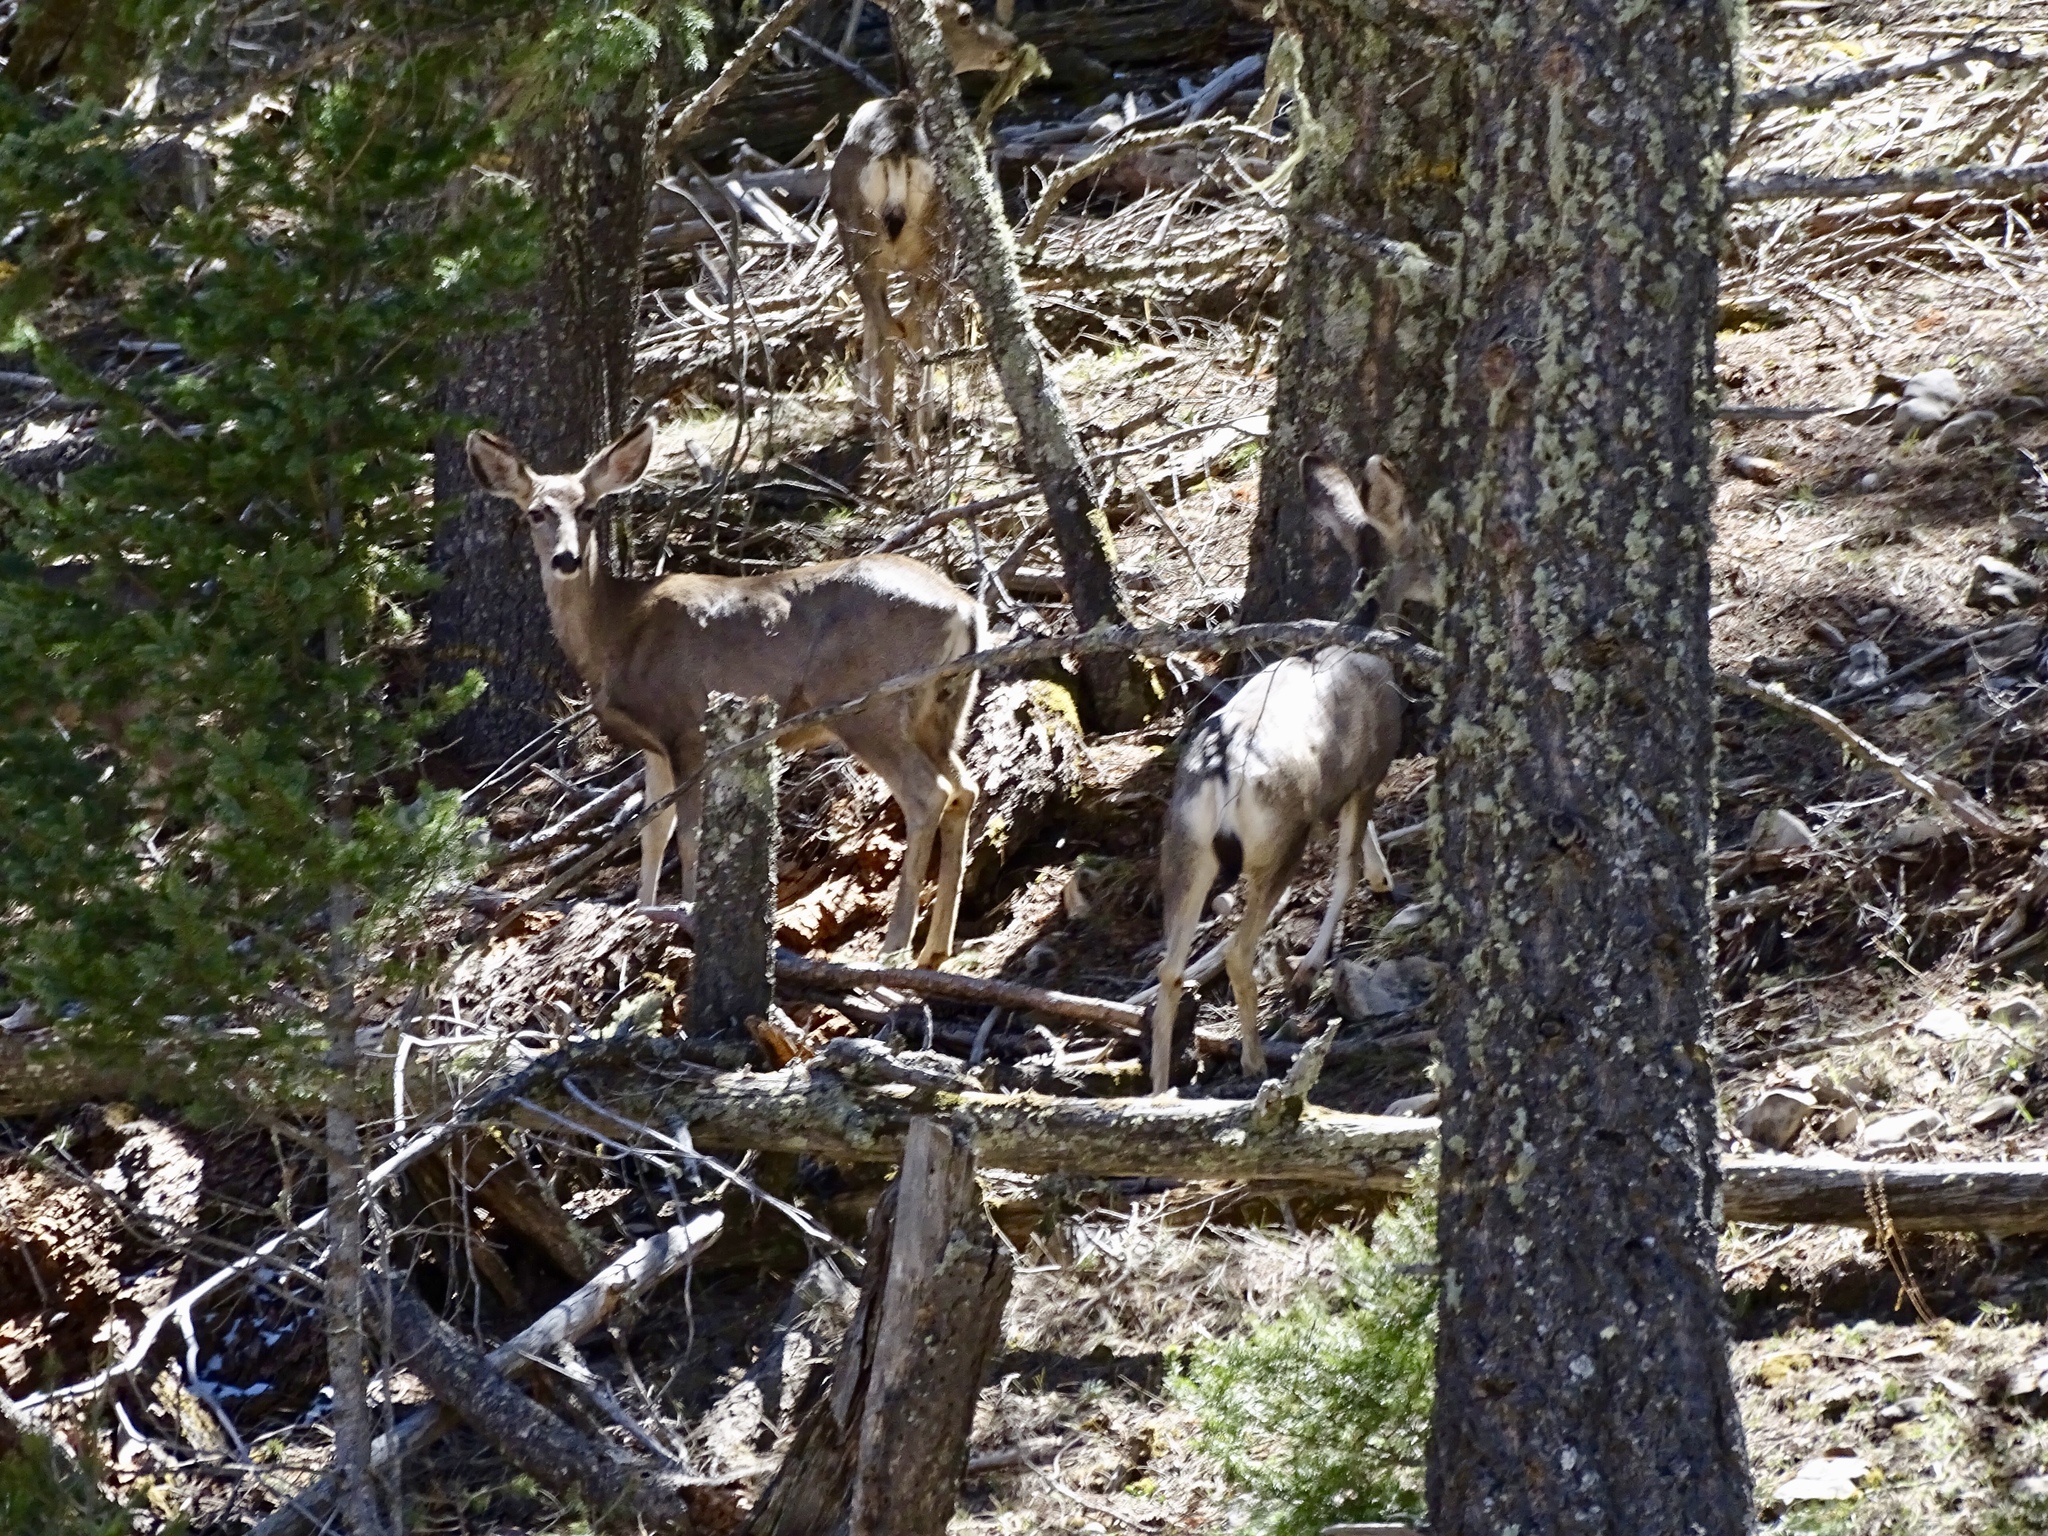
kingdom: Animalia
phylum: Chordata
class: Mammalia
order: Artiodactyla
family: Cervidae
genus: Odocoileus
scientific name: Odocoileus hemionus
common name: Mule deer
